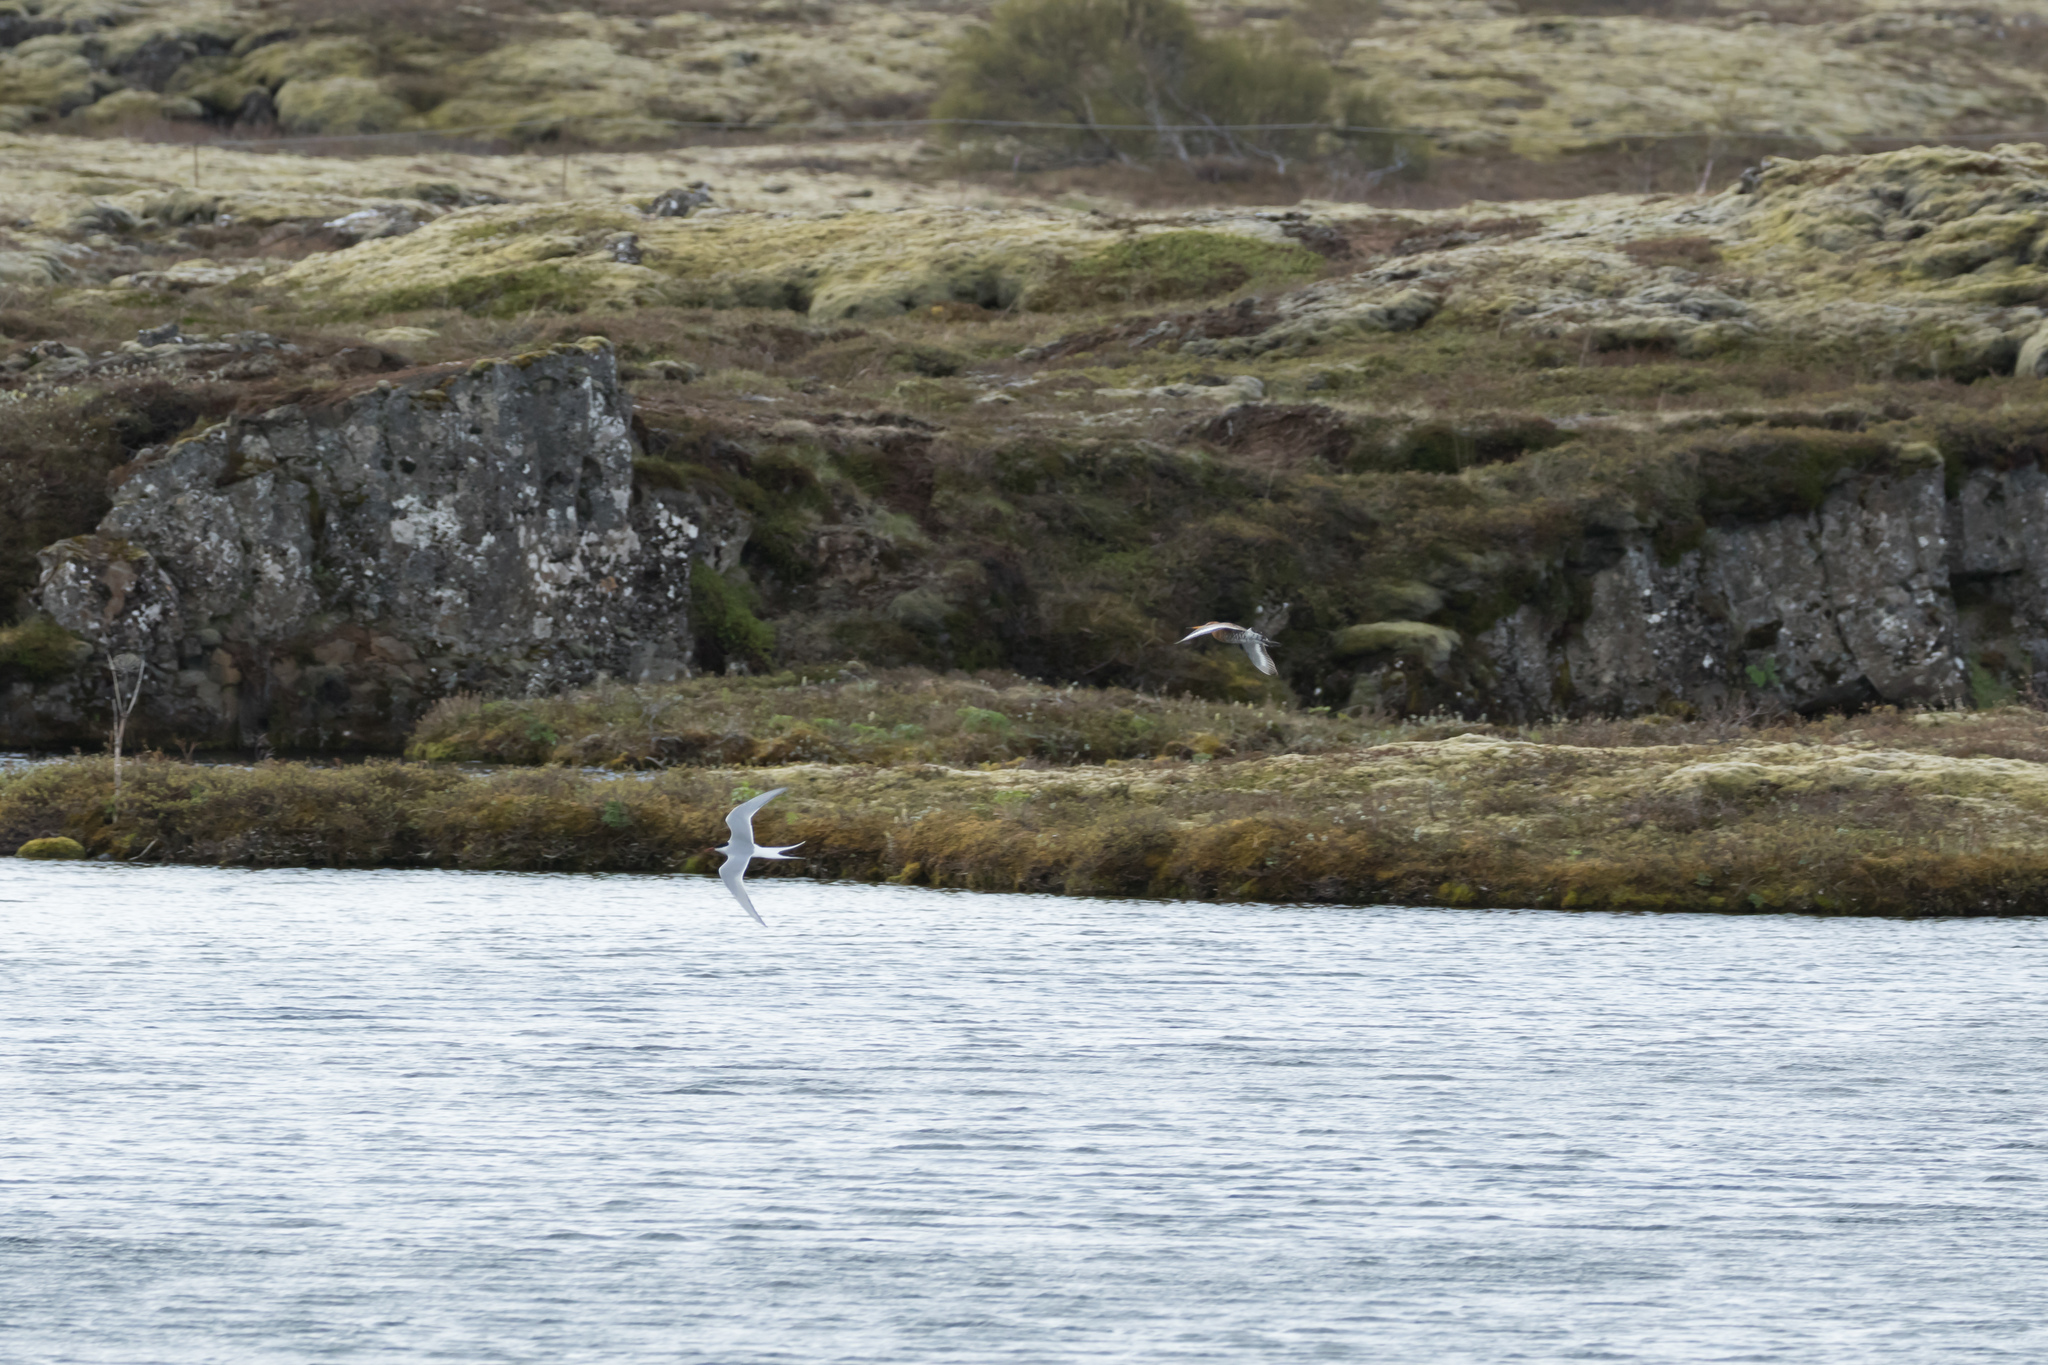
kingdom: Animalia
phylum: Chordata
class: Aves
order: Charadriiformes
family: Scolopacidae
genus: Limosa
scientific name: Limosa limosa
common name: Black-tailed godwit
